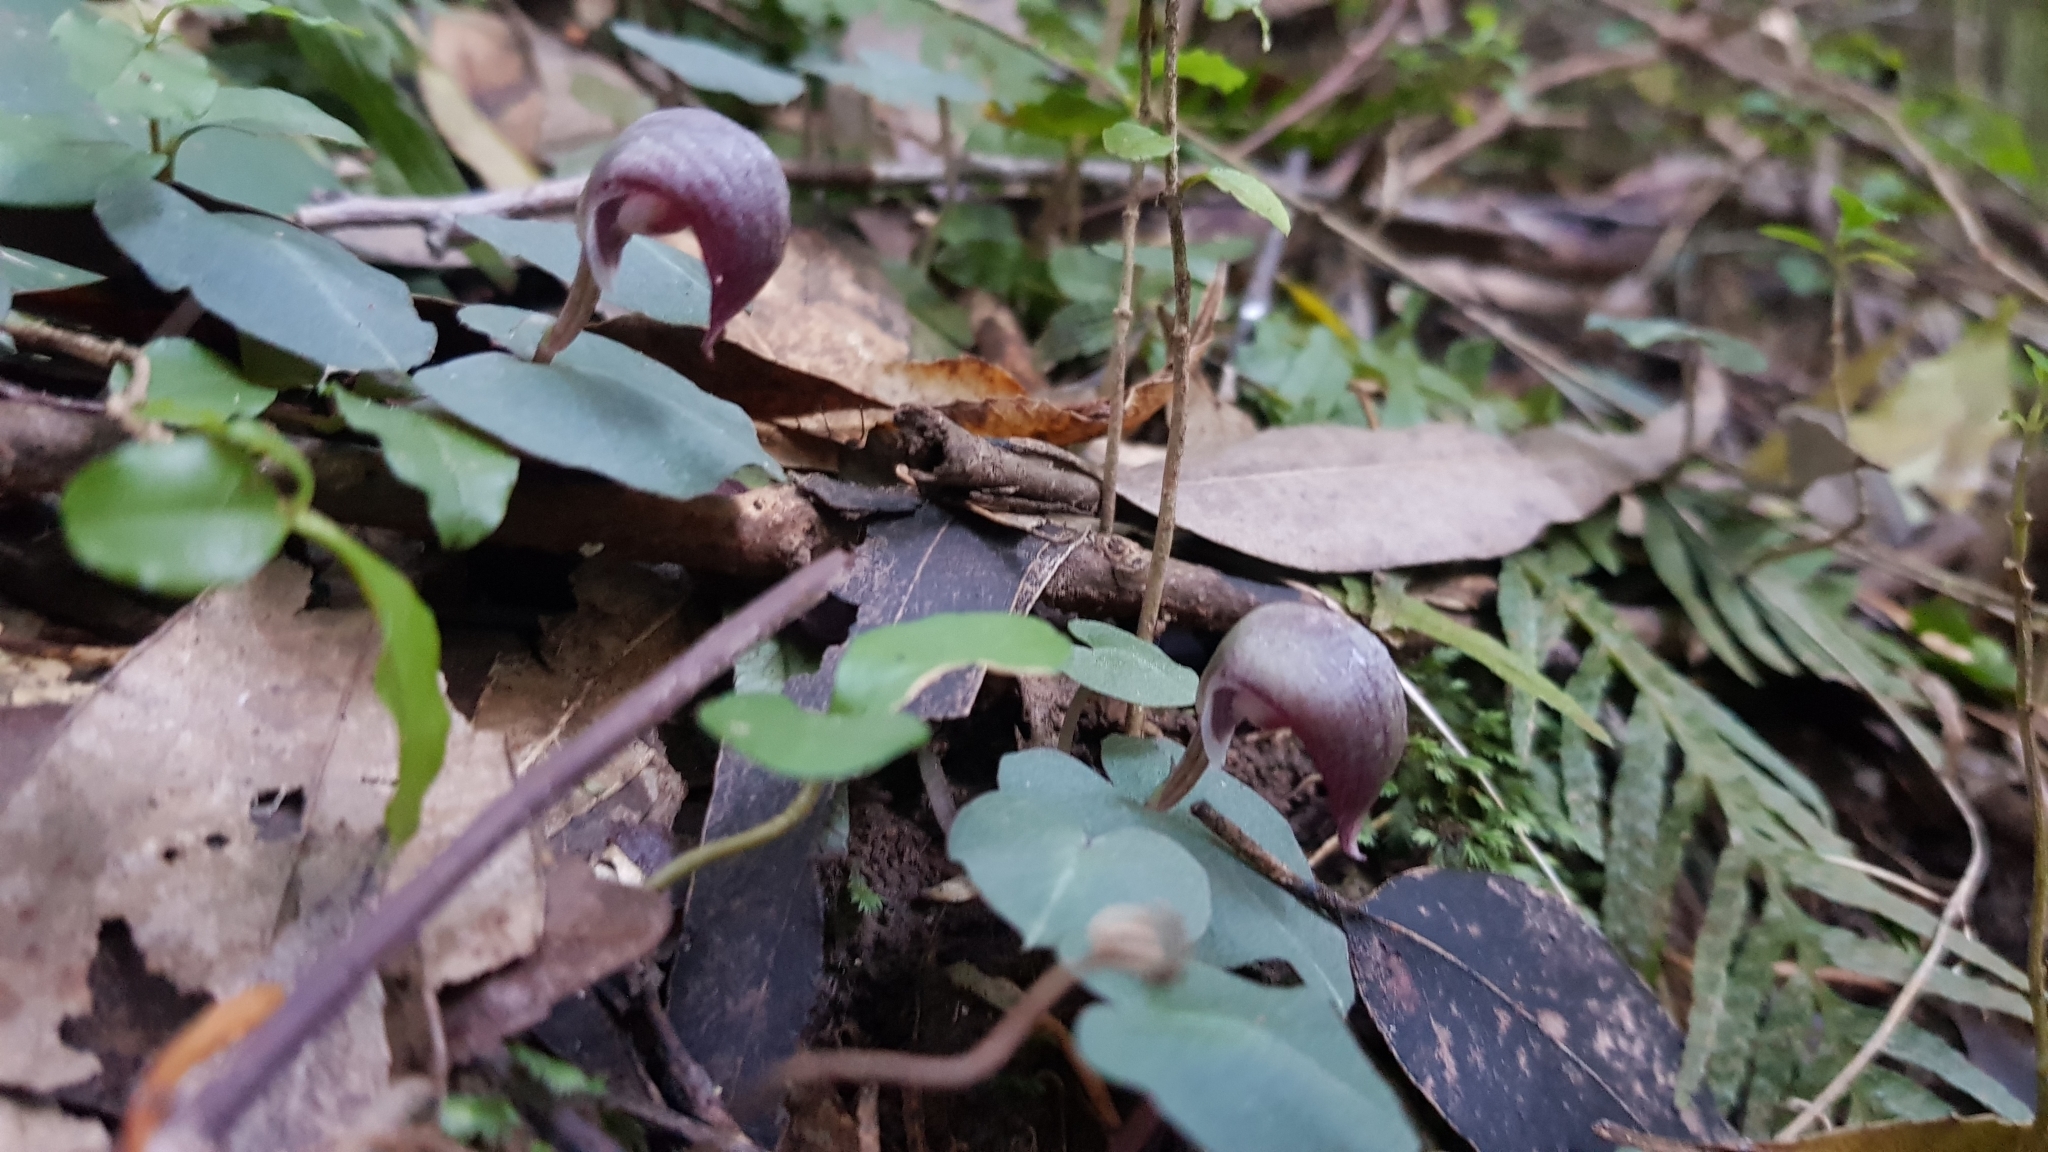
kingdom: Plantae
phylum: Tracheophyta
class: Liliopsida
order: Asparagales
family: Orchidaceae
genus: Corybas
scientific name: Corybas aconitiflorus
